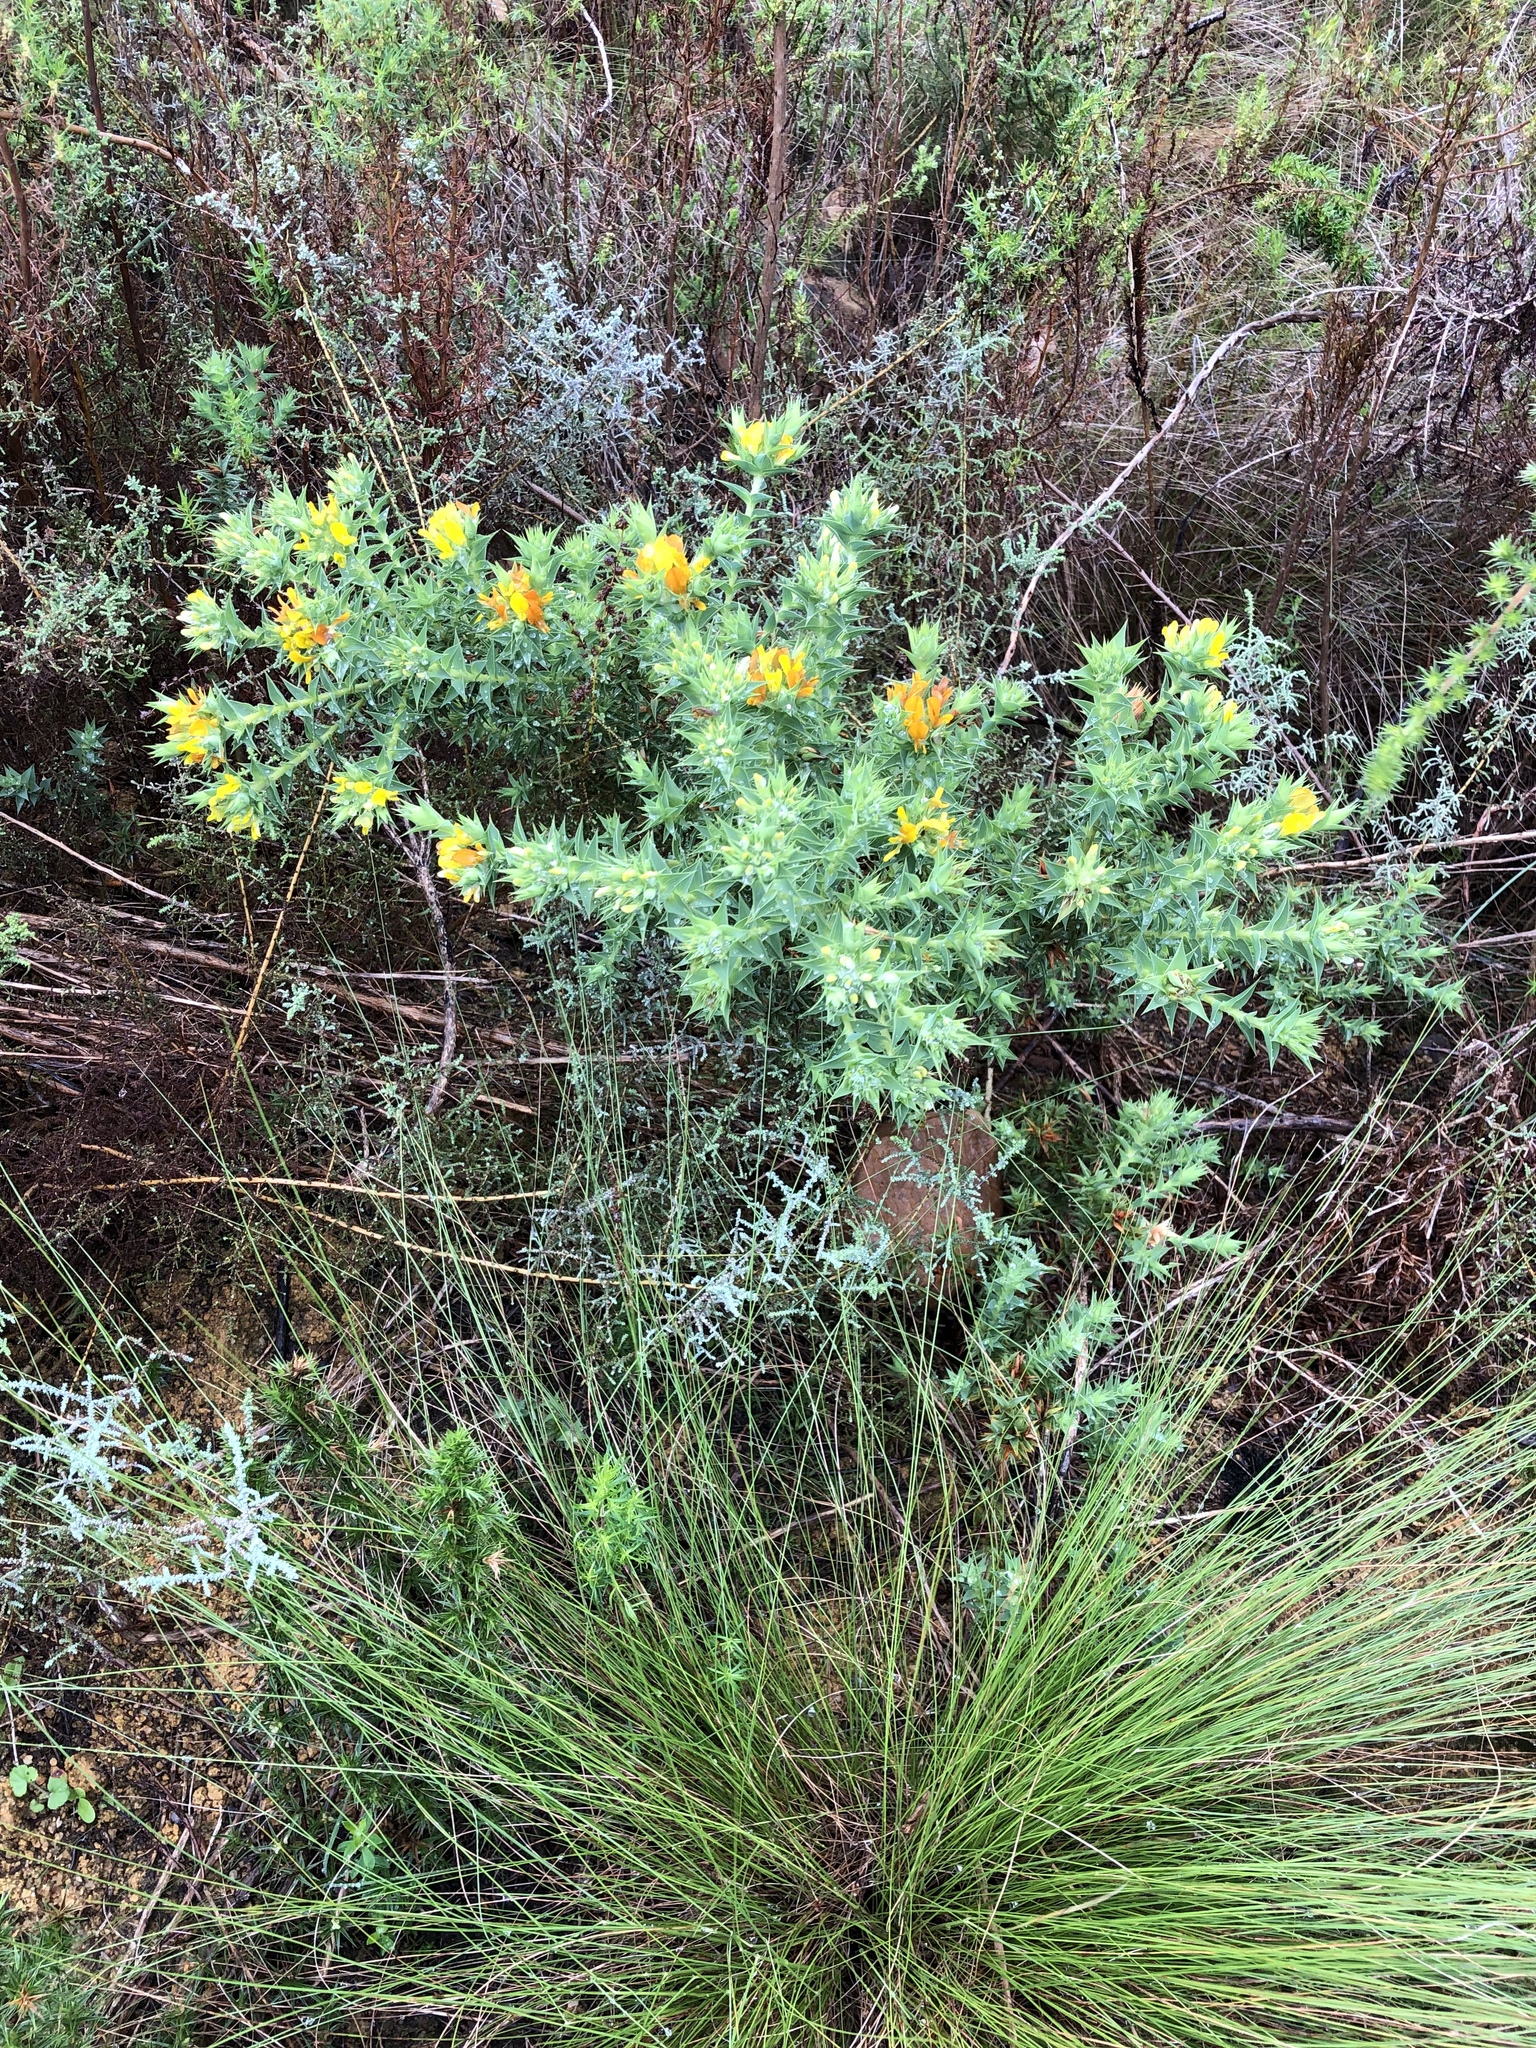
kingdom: Plantae
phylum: Tracheophyta
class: Magnoliopsida
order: Fabales
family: Fabaceae
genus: Aspalathus
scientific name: Aspalathus cordata
